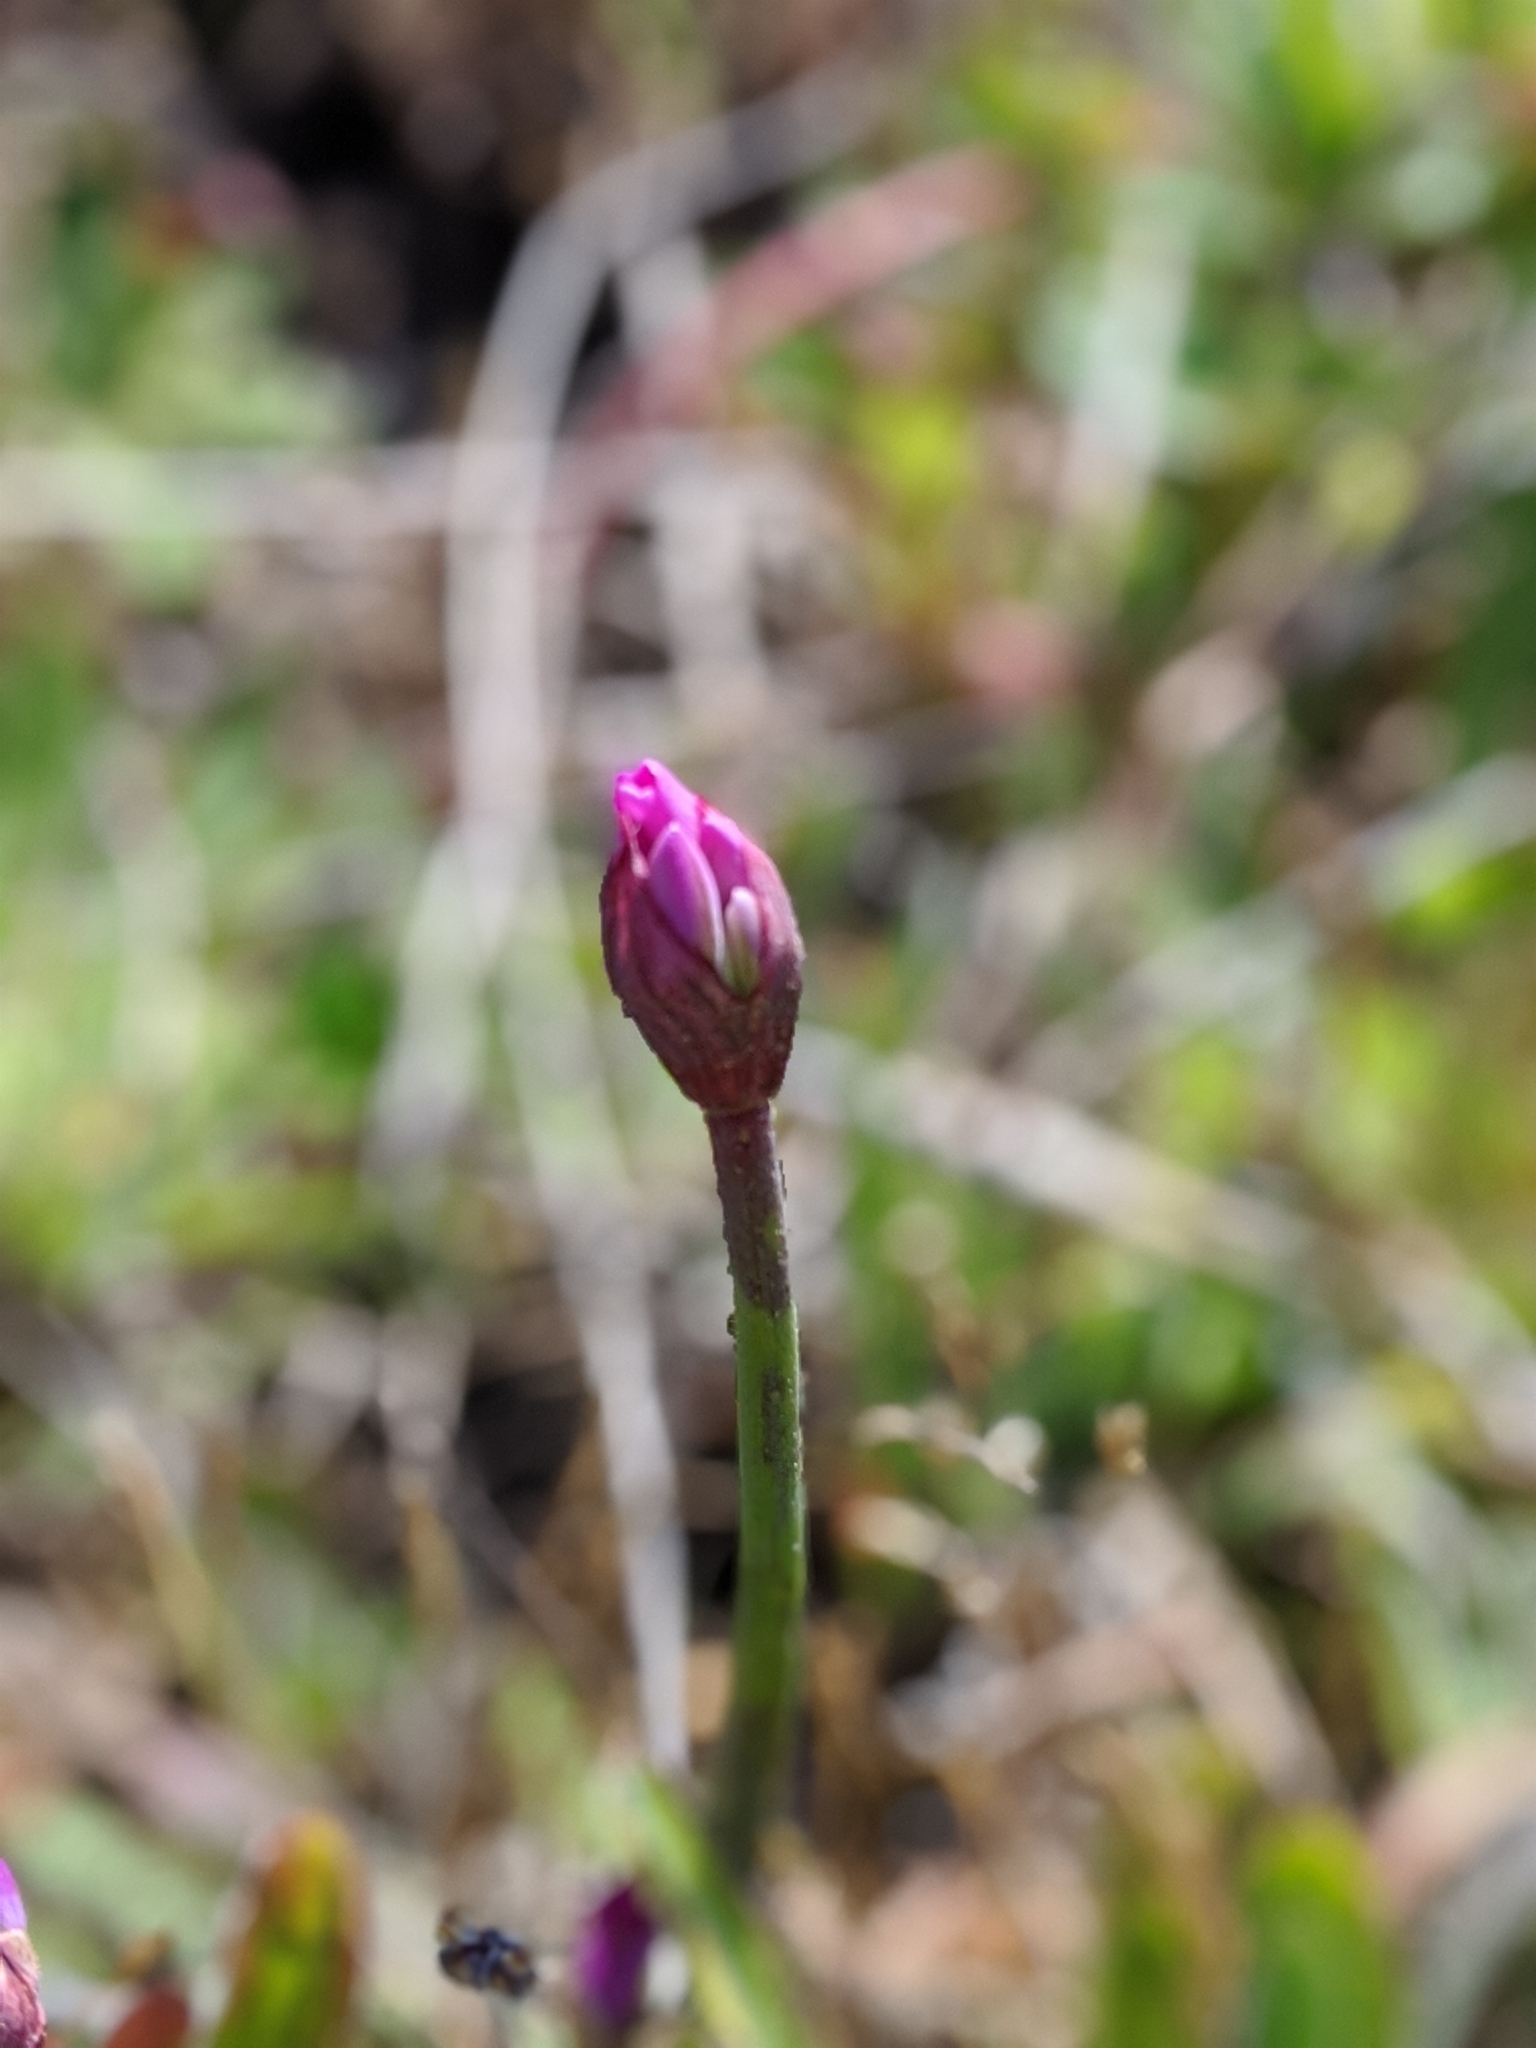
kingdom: Plantae
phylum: Tracheophyta
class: Liliopsida
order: Asparagales
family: Amaryllidaceae
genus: Allium
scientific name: Allium dichlamydeum
